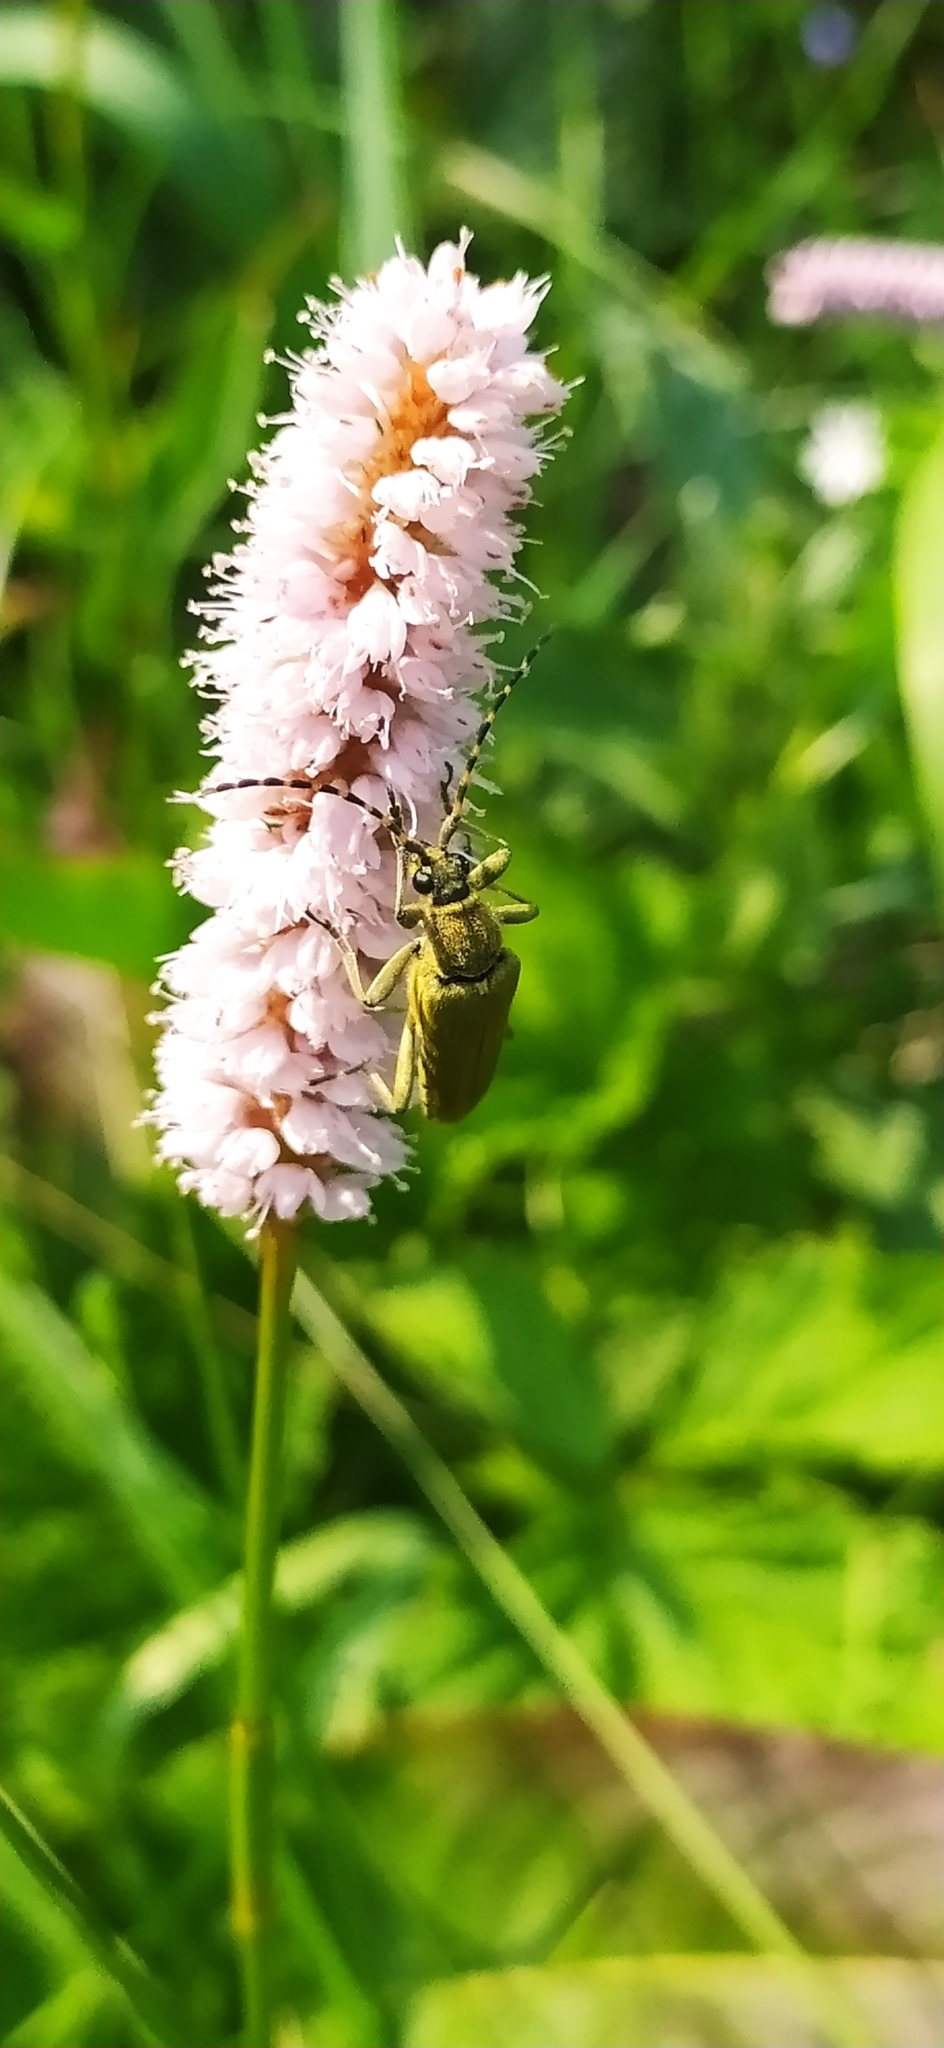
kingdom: Animalia
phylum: Arthropoda
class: Insecta
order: Coleoptera
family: Cerambycidae
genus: Lepturobosca
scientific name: Lepturobosca virens
